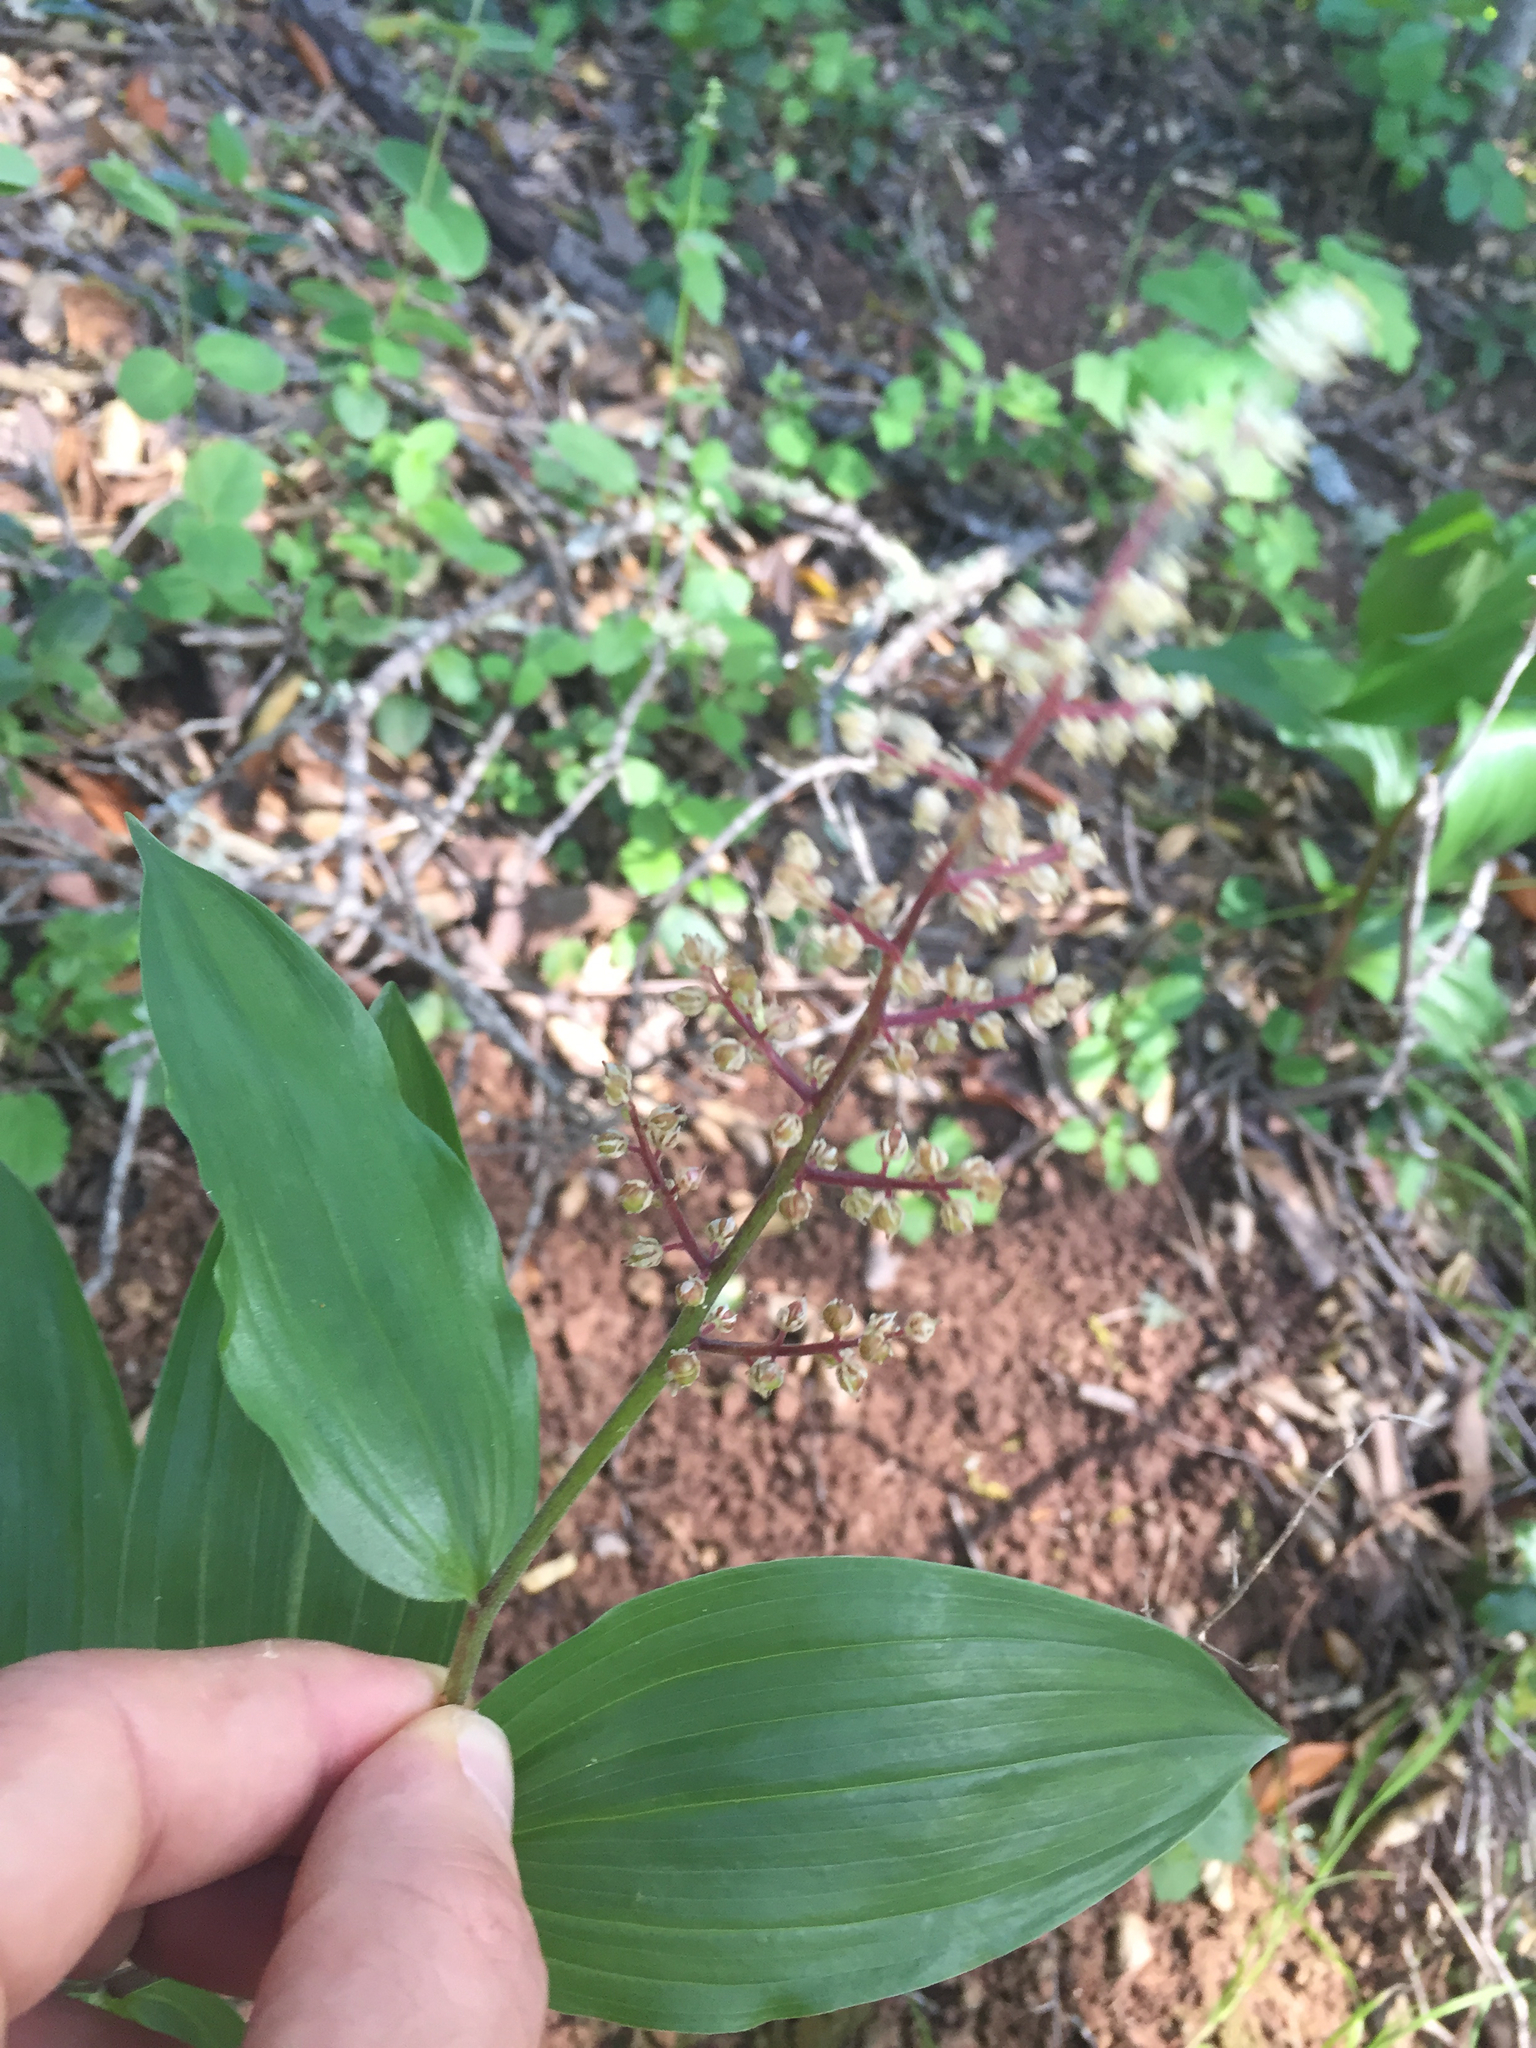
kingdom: Plantae
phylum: Tracheophyta
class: Liliopsida
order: Asparagales
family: Asparagaceae
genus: Maianthemum
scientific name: Maianthemum racemosum
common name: False spikenard
